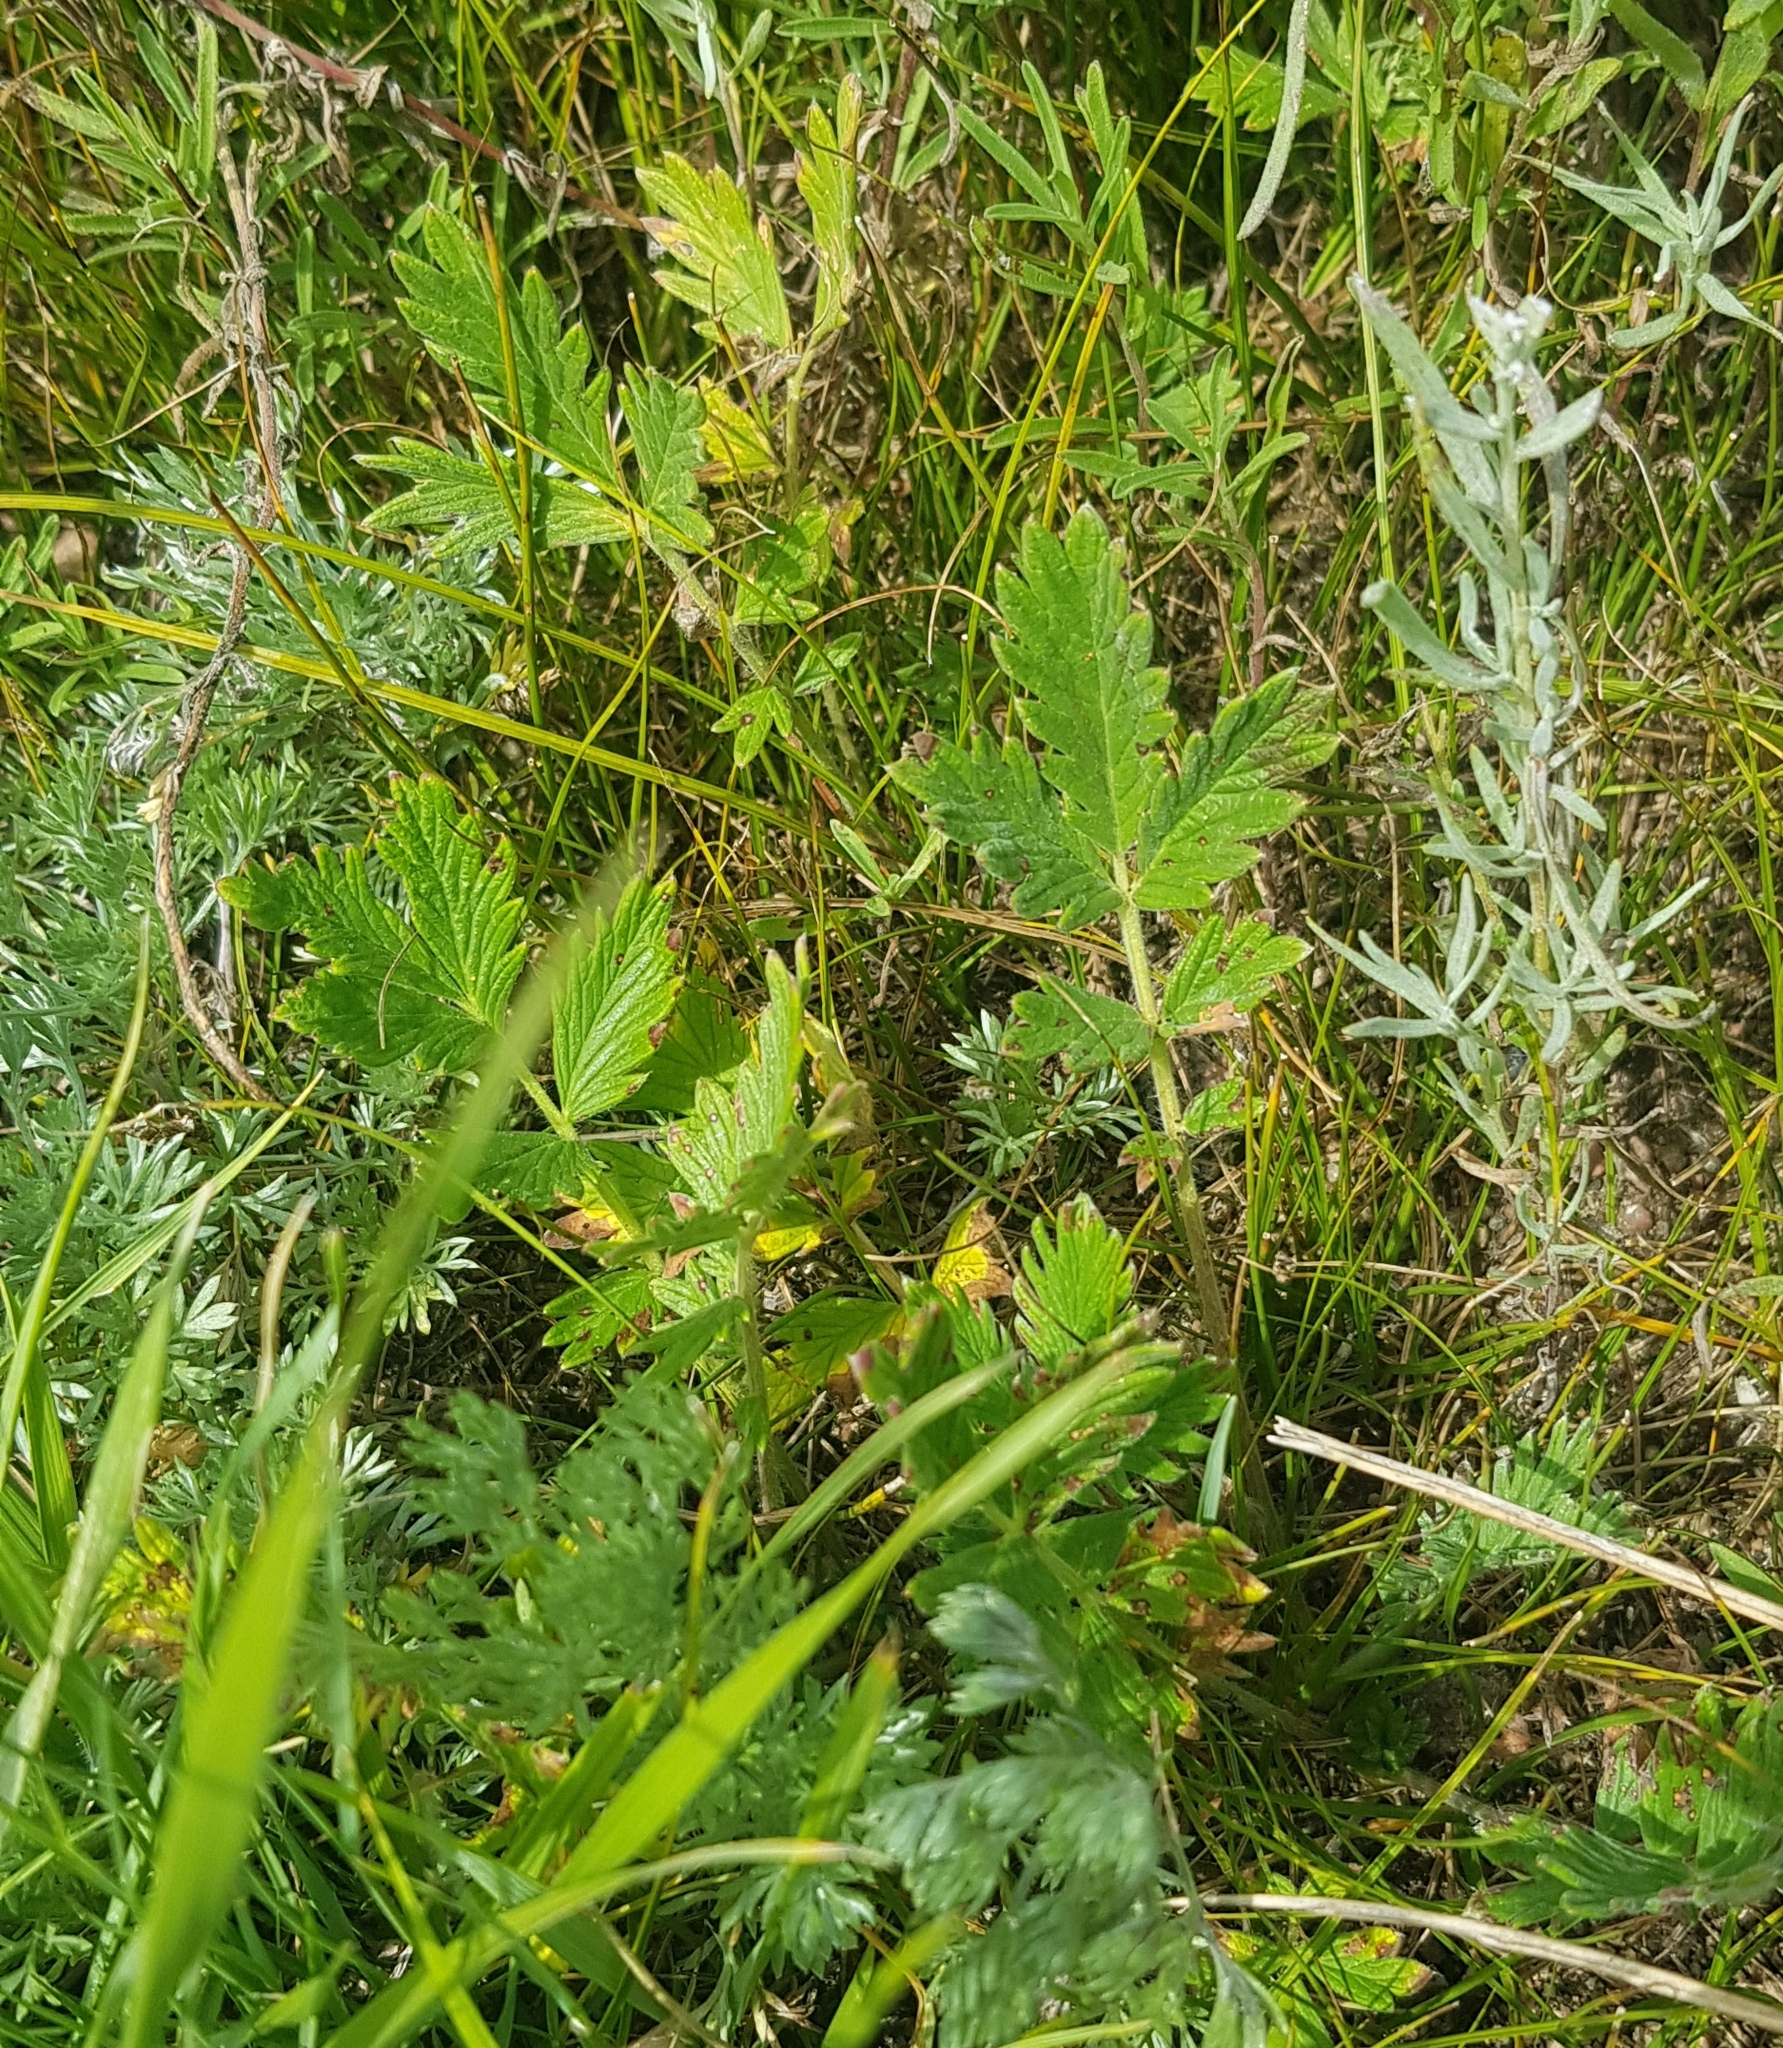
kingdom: Plantae
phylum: Tracheophyta
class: Magnoliopsida
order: Rosales
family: Rosaceae
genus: Potentilla
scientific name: Potentilla pensylvanica
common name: Pennsylvania cinquefoil
